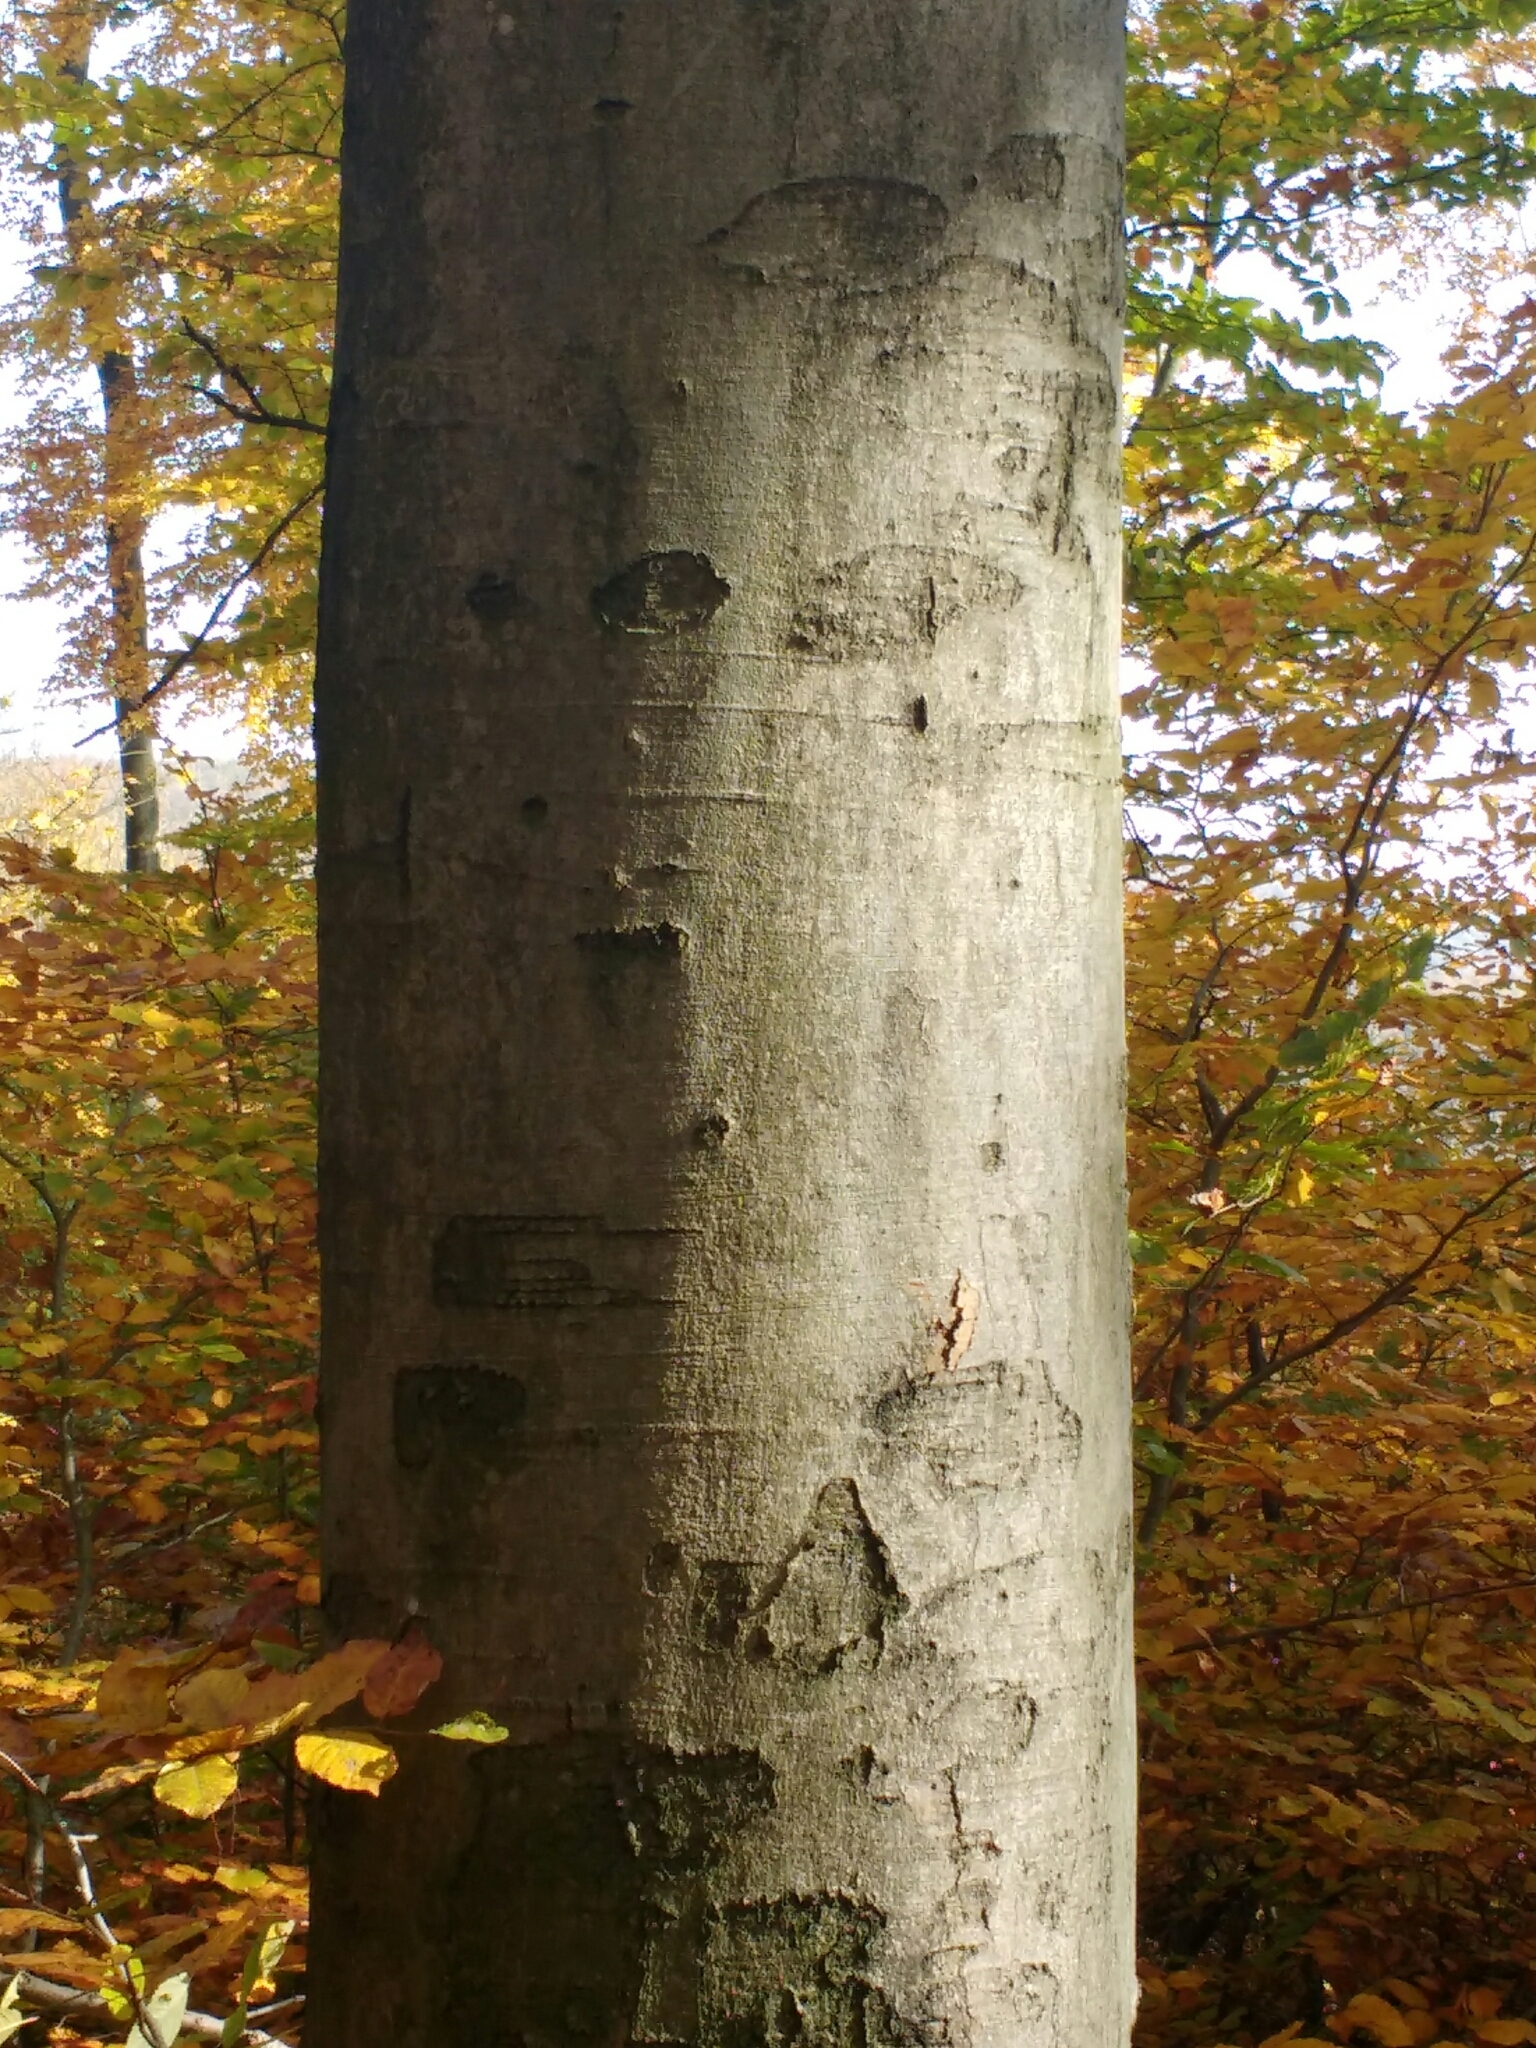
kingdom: Plantae
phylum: Tracheophyta
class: Magnoliopsida
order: Fagales
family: Fagaceae
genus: Fagus
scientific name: Fagus sylvatica
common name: Beech
